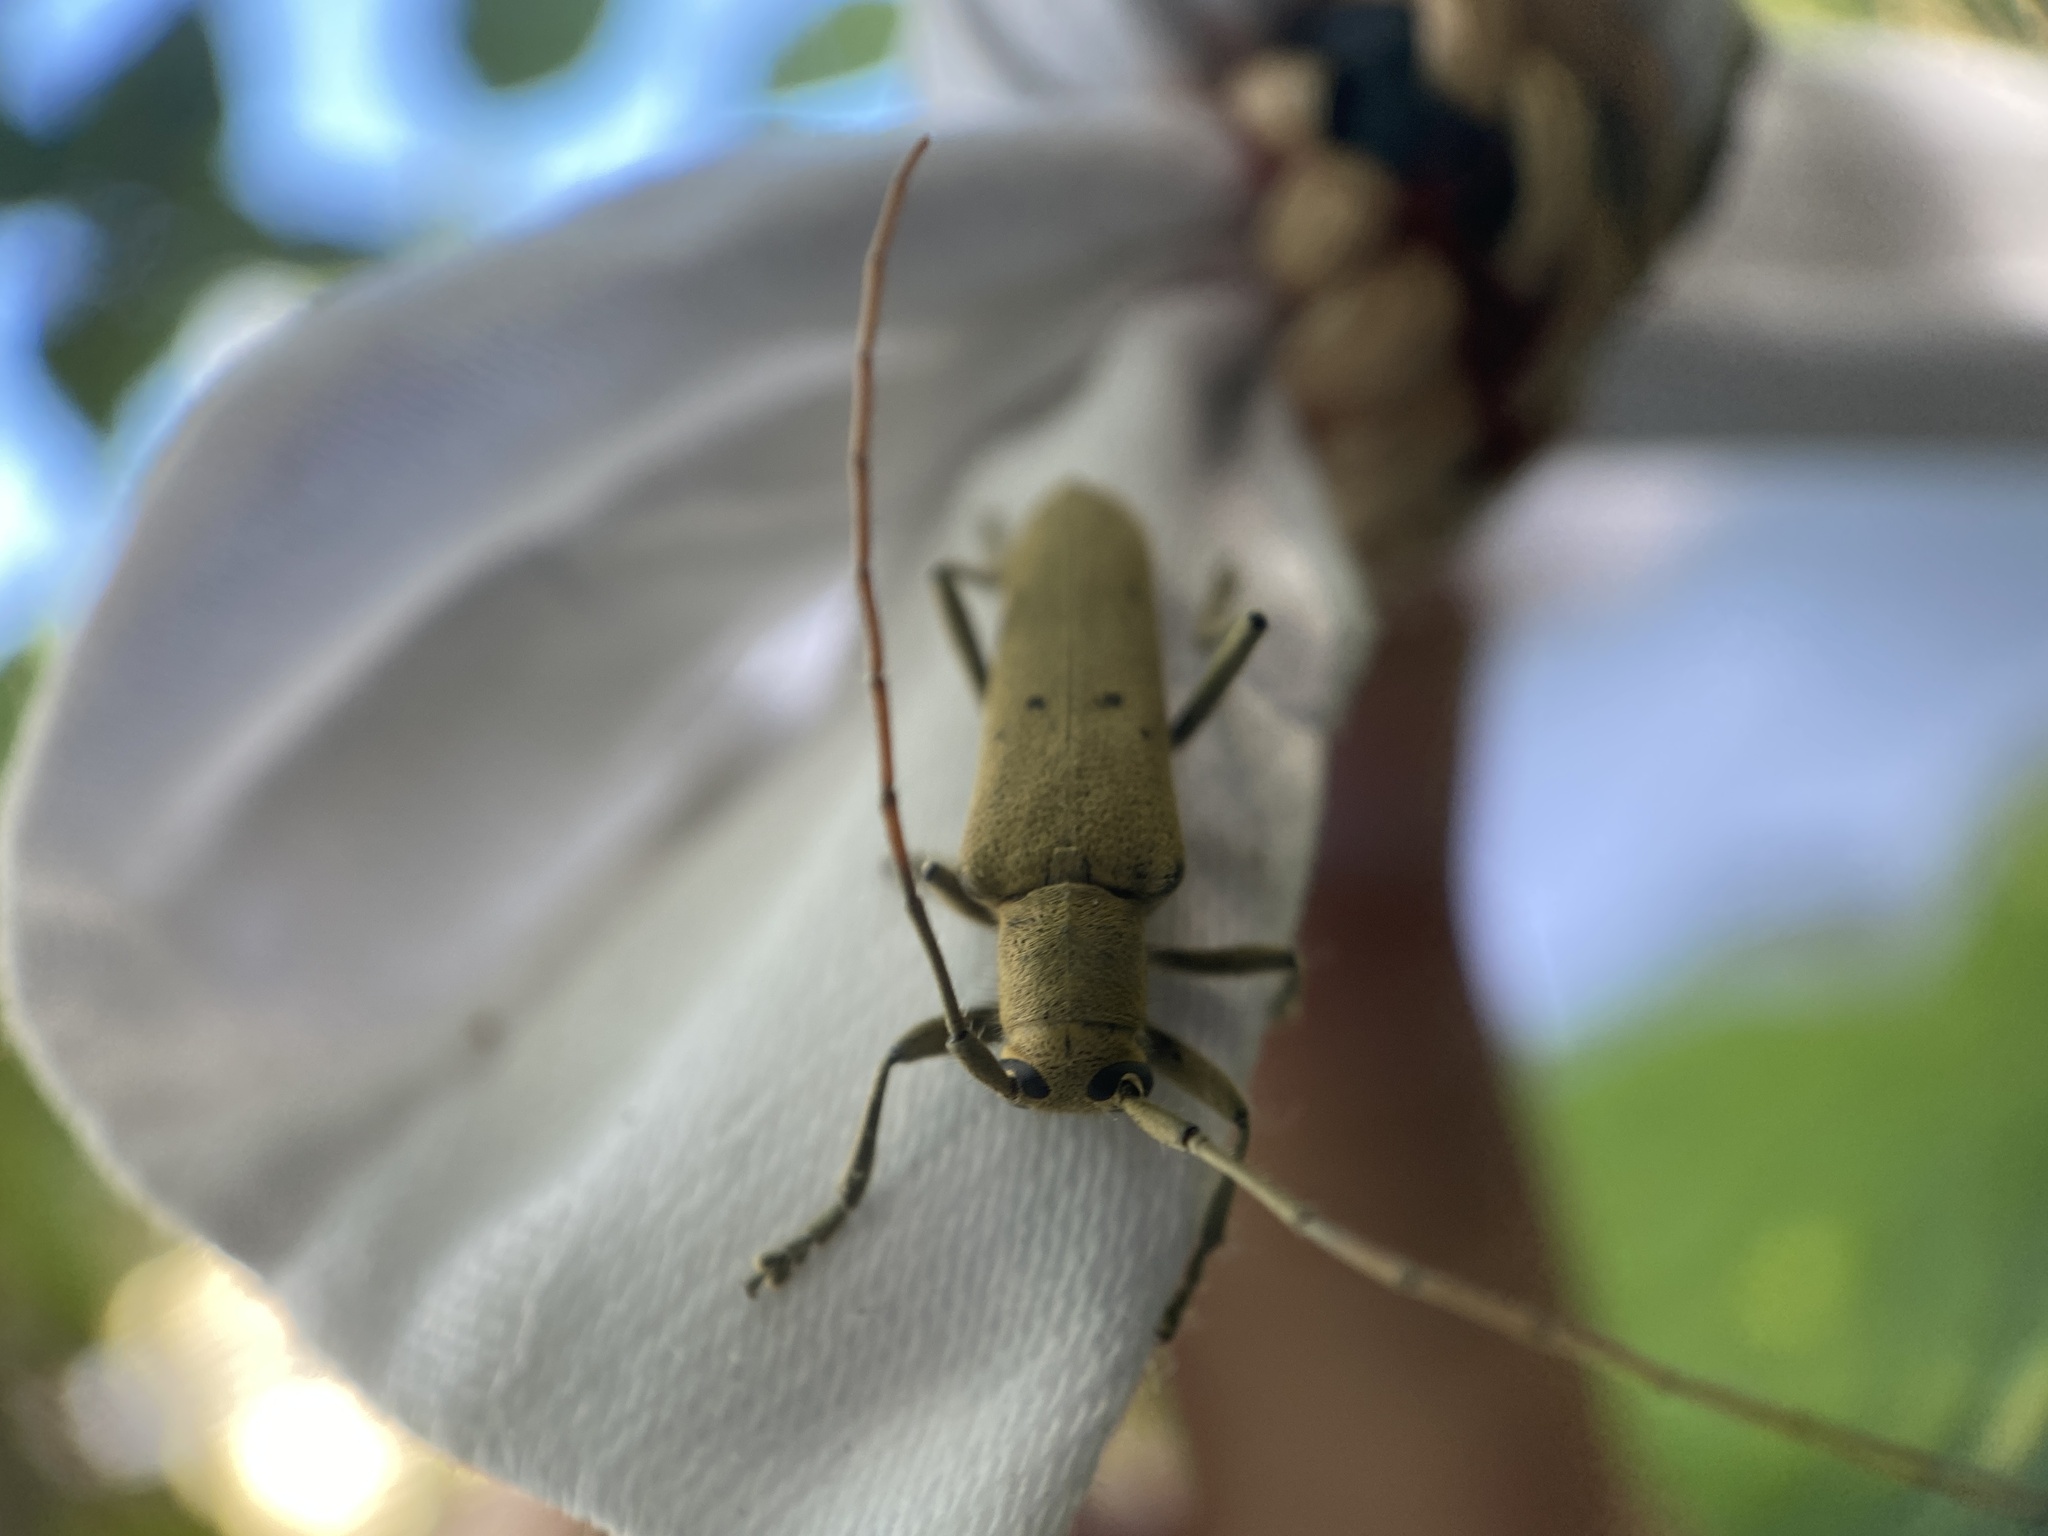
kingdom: Animalia
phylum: Arthropoda
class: Insecta
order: Coleoptera
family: Cerambycidae
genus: Saperda
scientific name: Saperda vestita
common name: Linden borer
